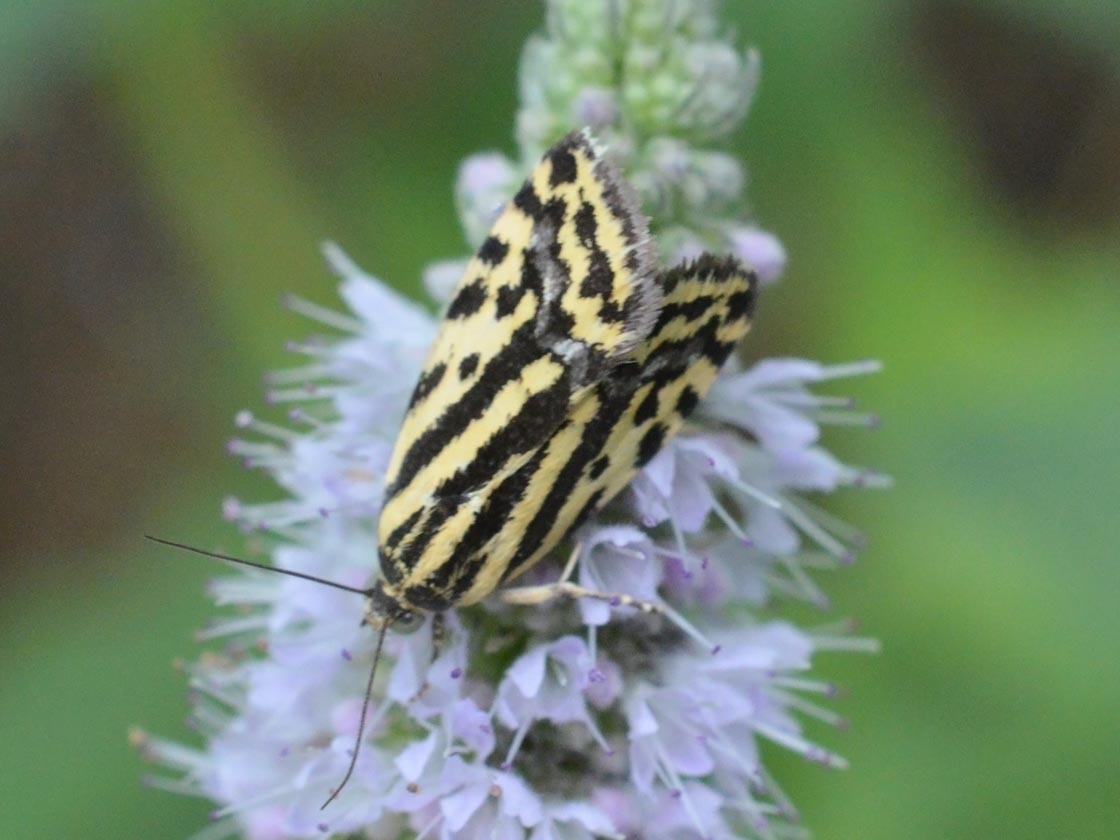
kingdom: Animalia
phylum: Arthropoda
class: Insecta
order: Lepidoptera
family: Noctuidae
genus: Acontia
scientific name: Acontia trabealis
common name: Spotted sulphur
